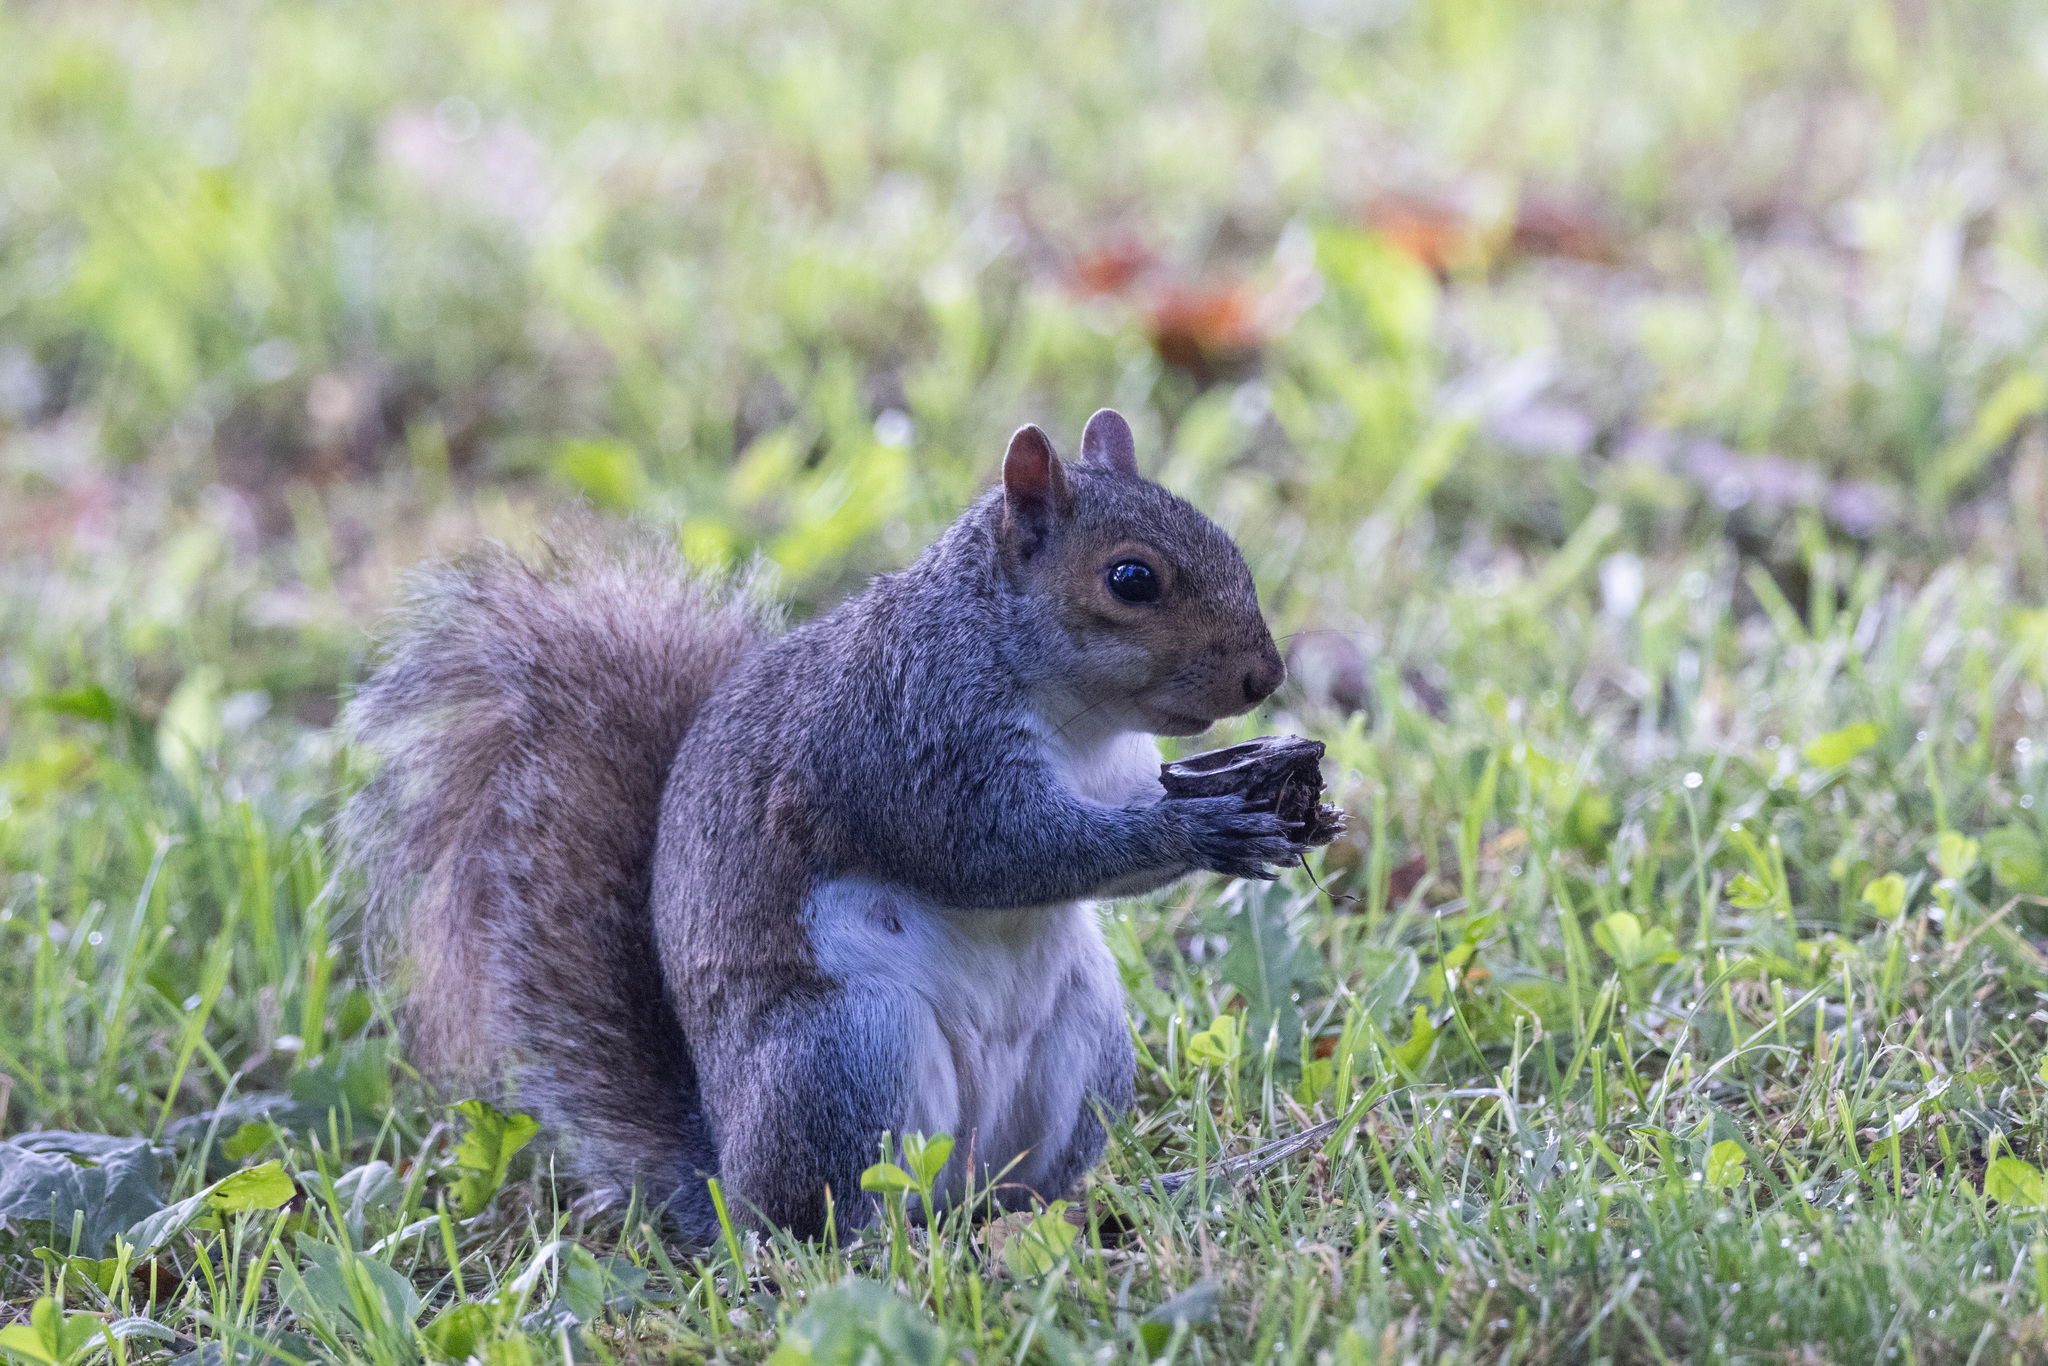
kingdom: Animalia
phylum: Chordata
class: Mammalia
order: Rodentia
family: Sciuridae
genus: Sciurus
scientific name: Sciurus carolinensis
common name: Eastern gray squirrel
